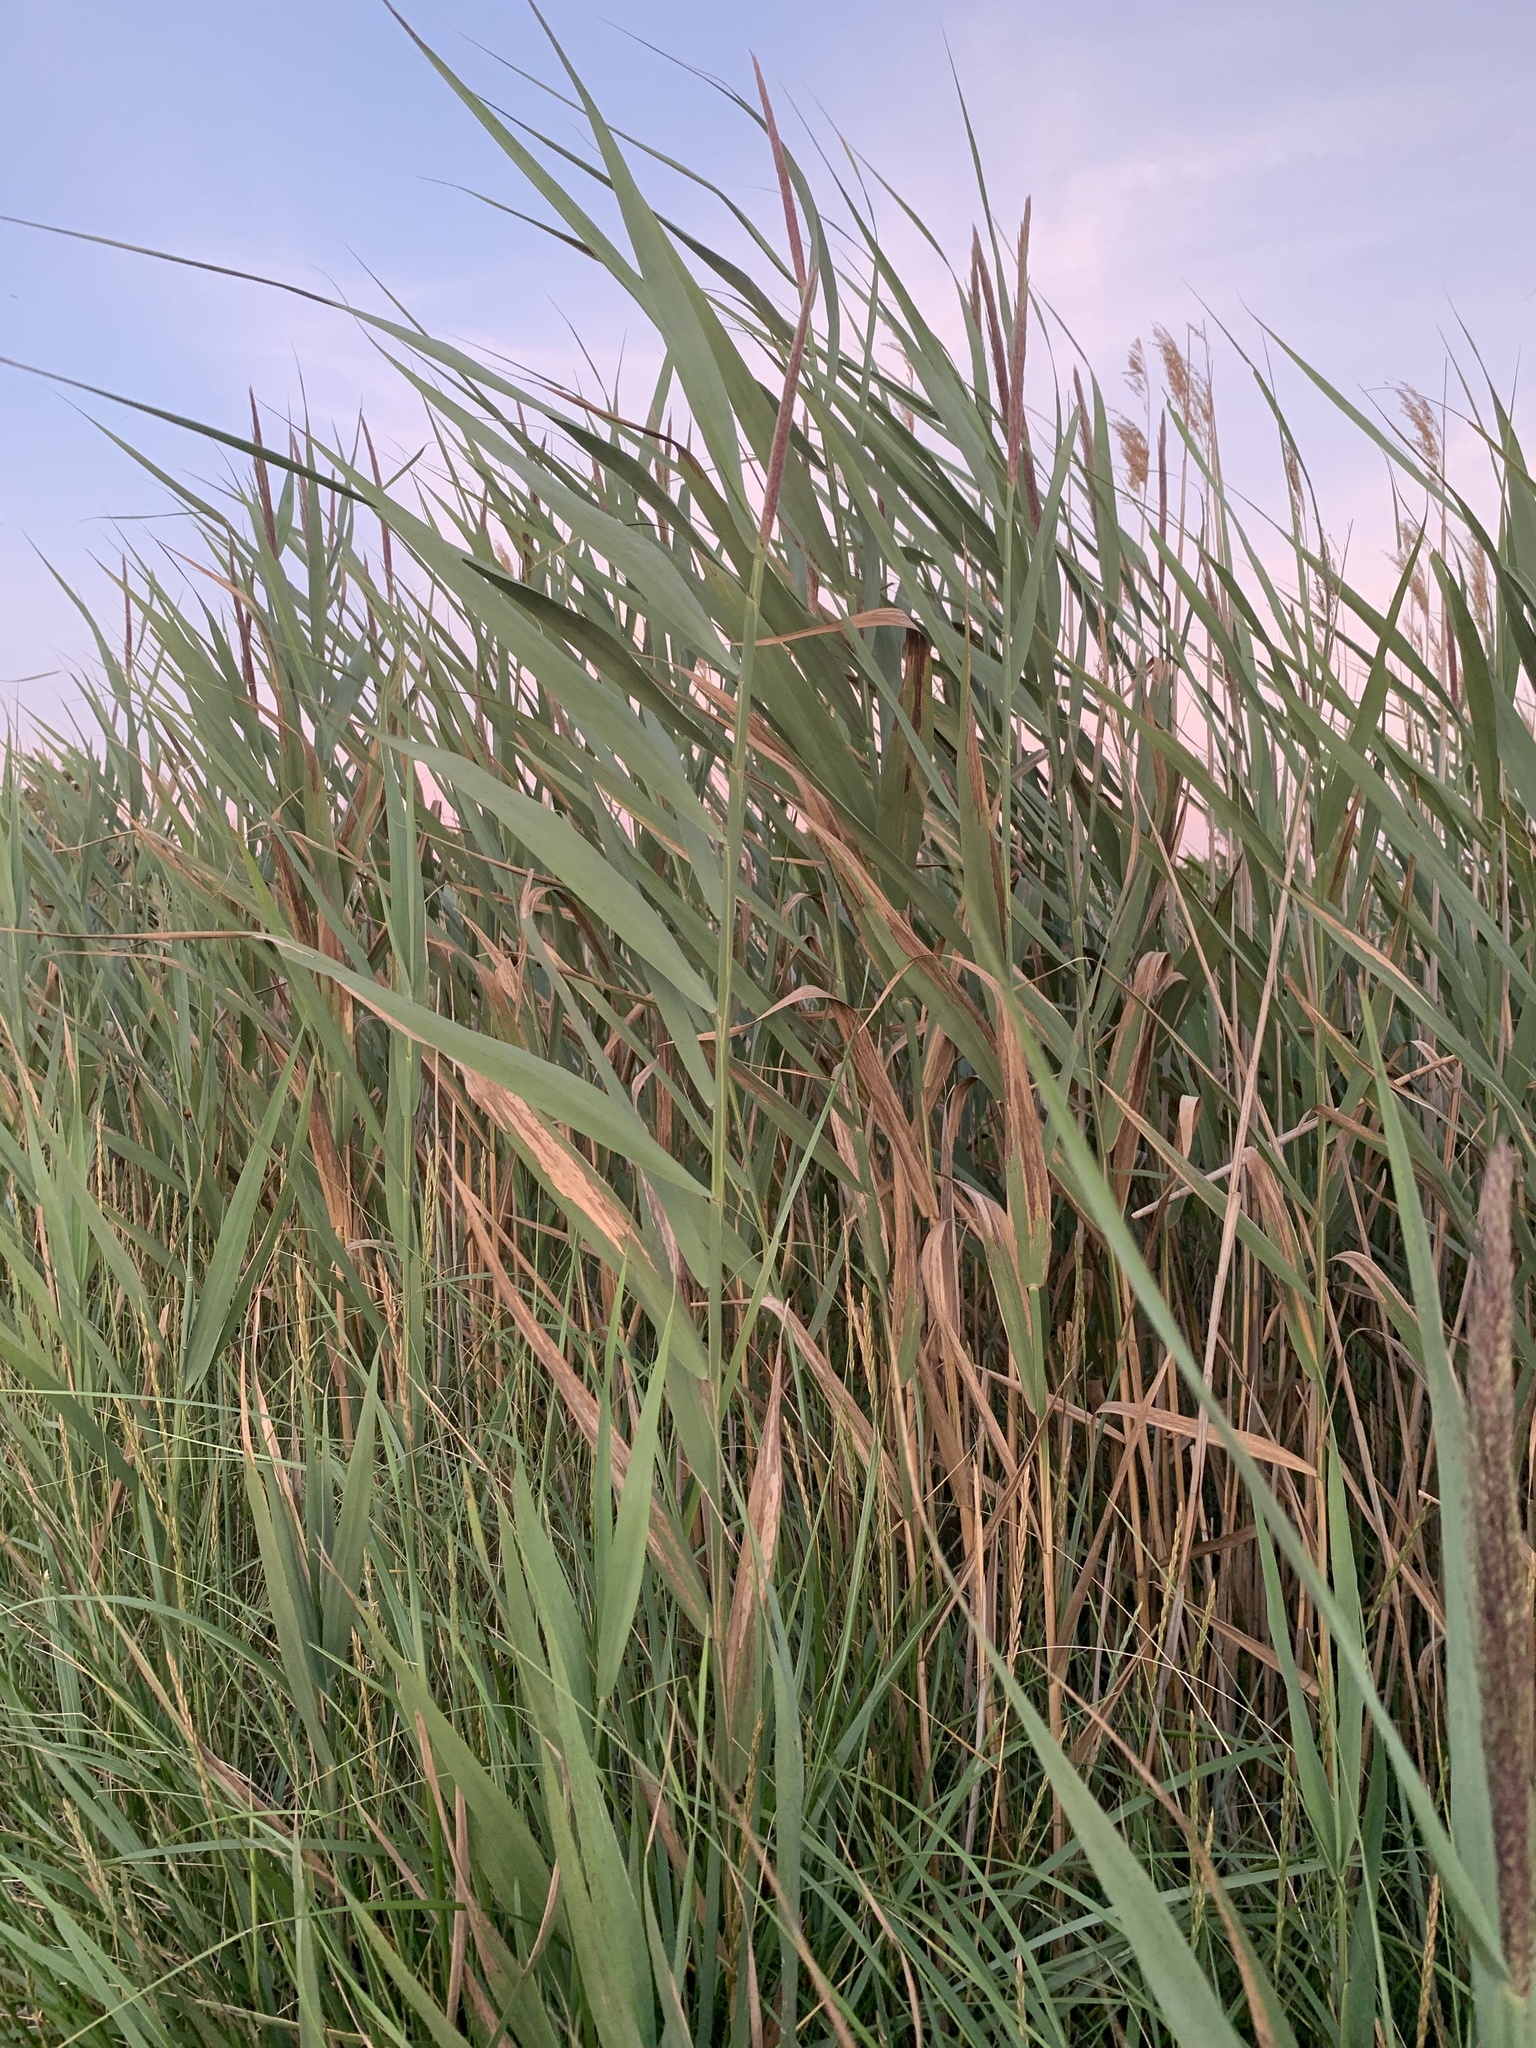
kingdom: Plantae
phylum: Tracheophyta
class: Liliopsida
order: Poales
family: Poaceae
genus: Phragmites
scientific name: Phragmites australis
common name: Common reed
